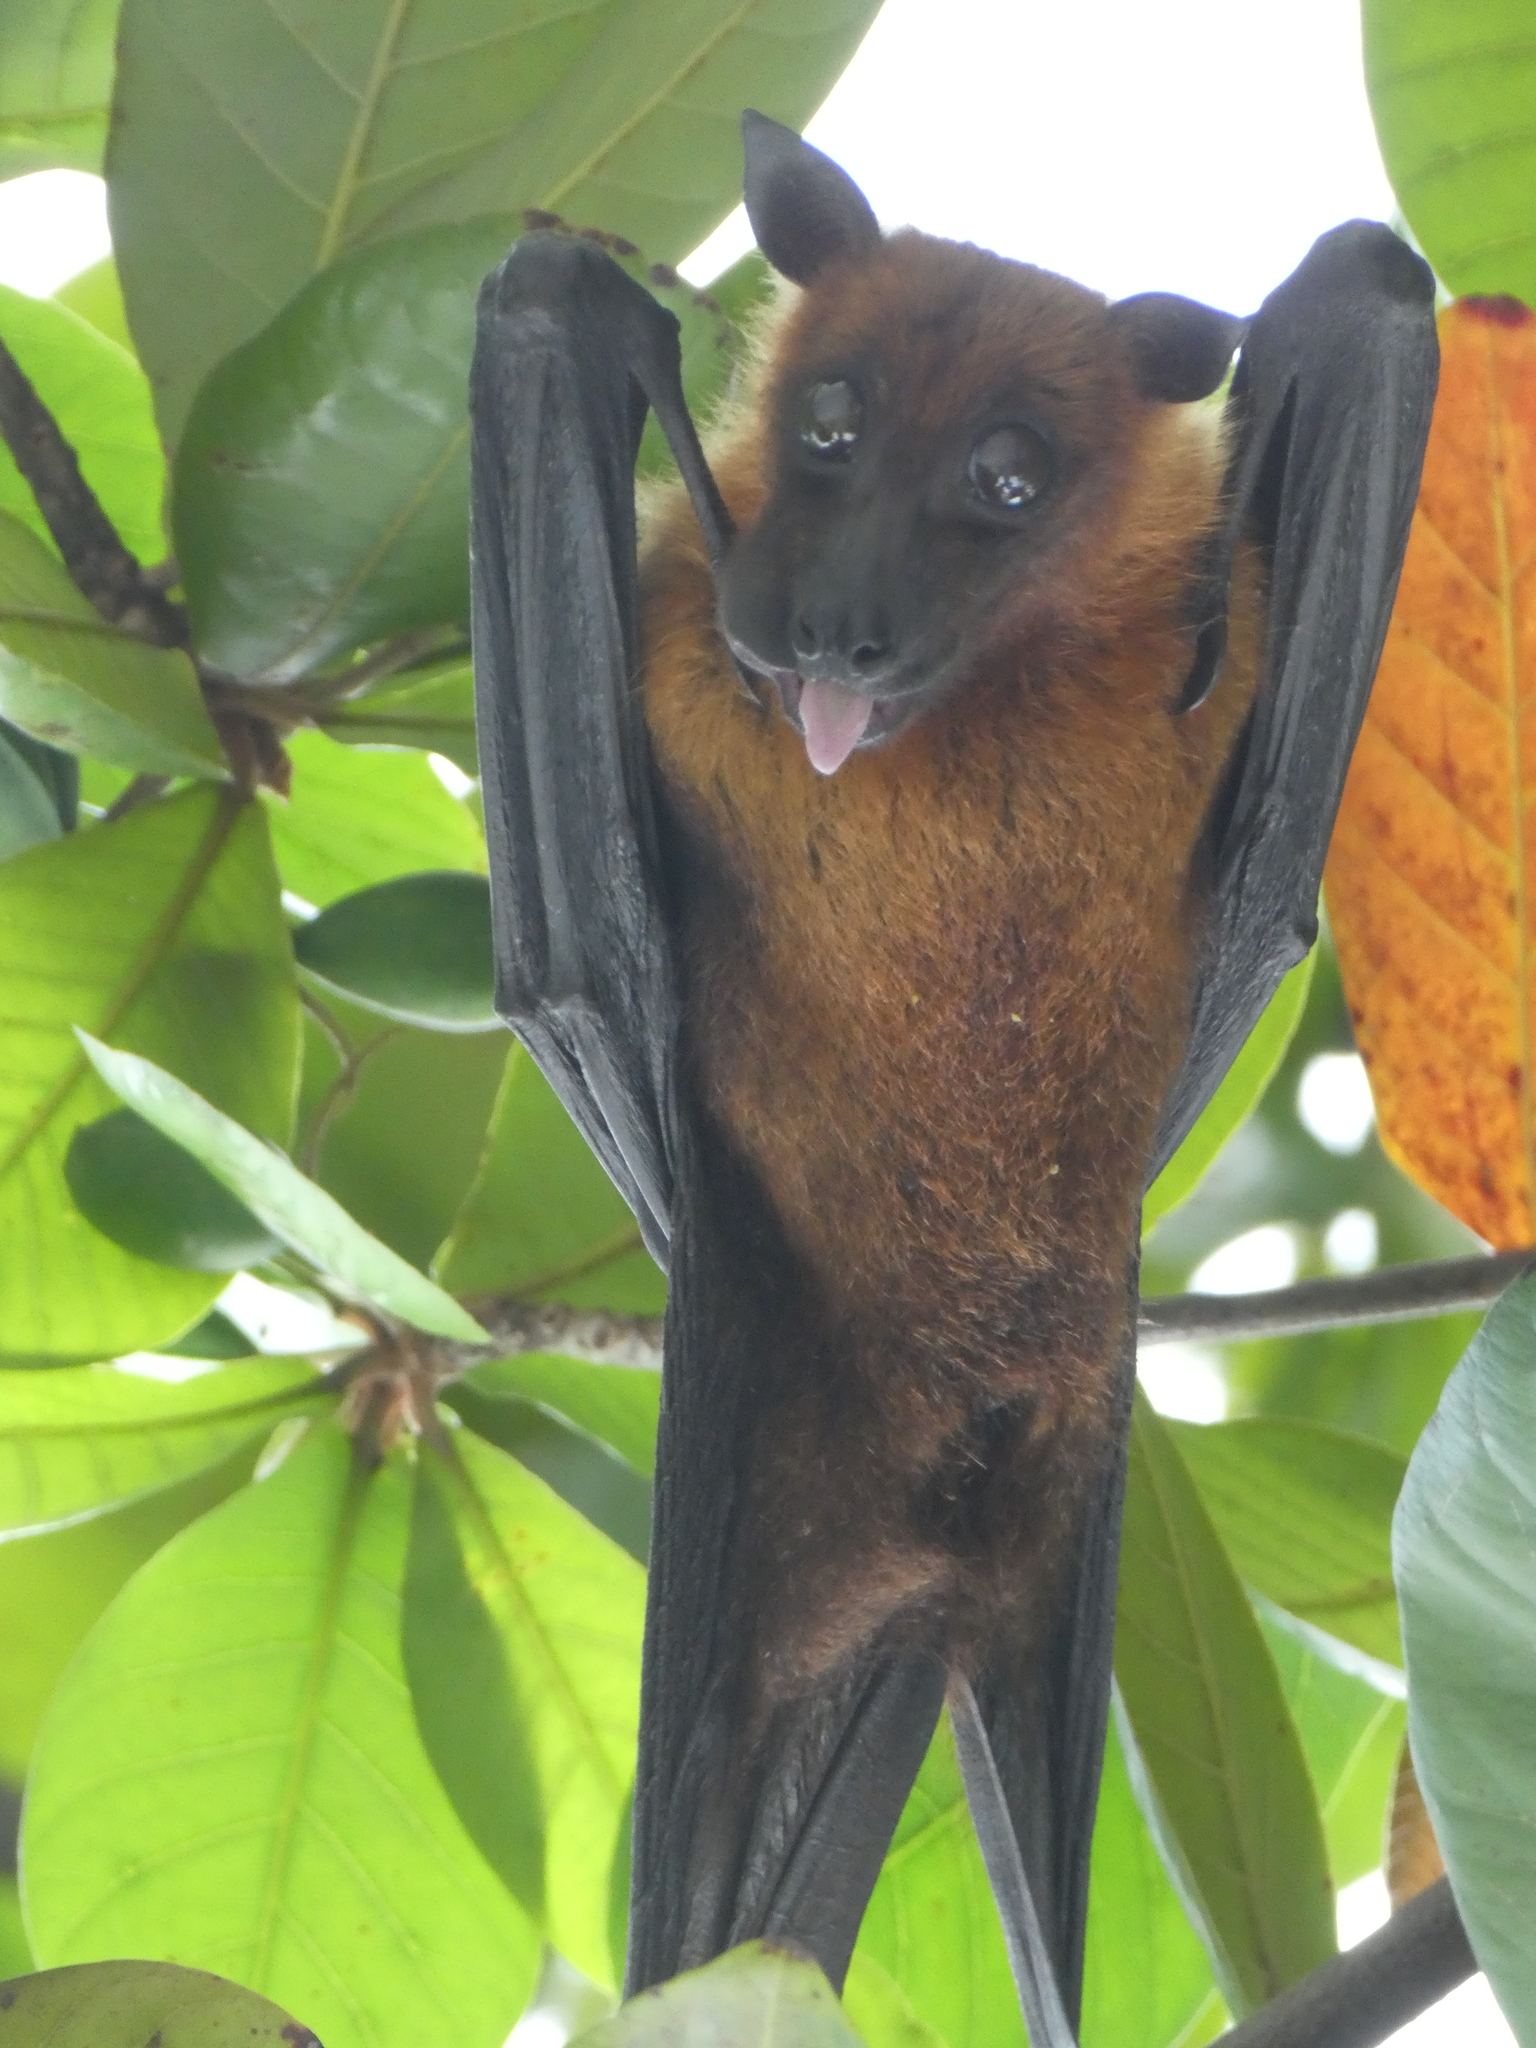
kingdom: Animalia
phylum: Chordata
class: Mammalia
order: Chiroptera
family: Pteropodidae
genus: Pteropus
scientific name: Pteropus medius
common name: Indian flying fox
